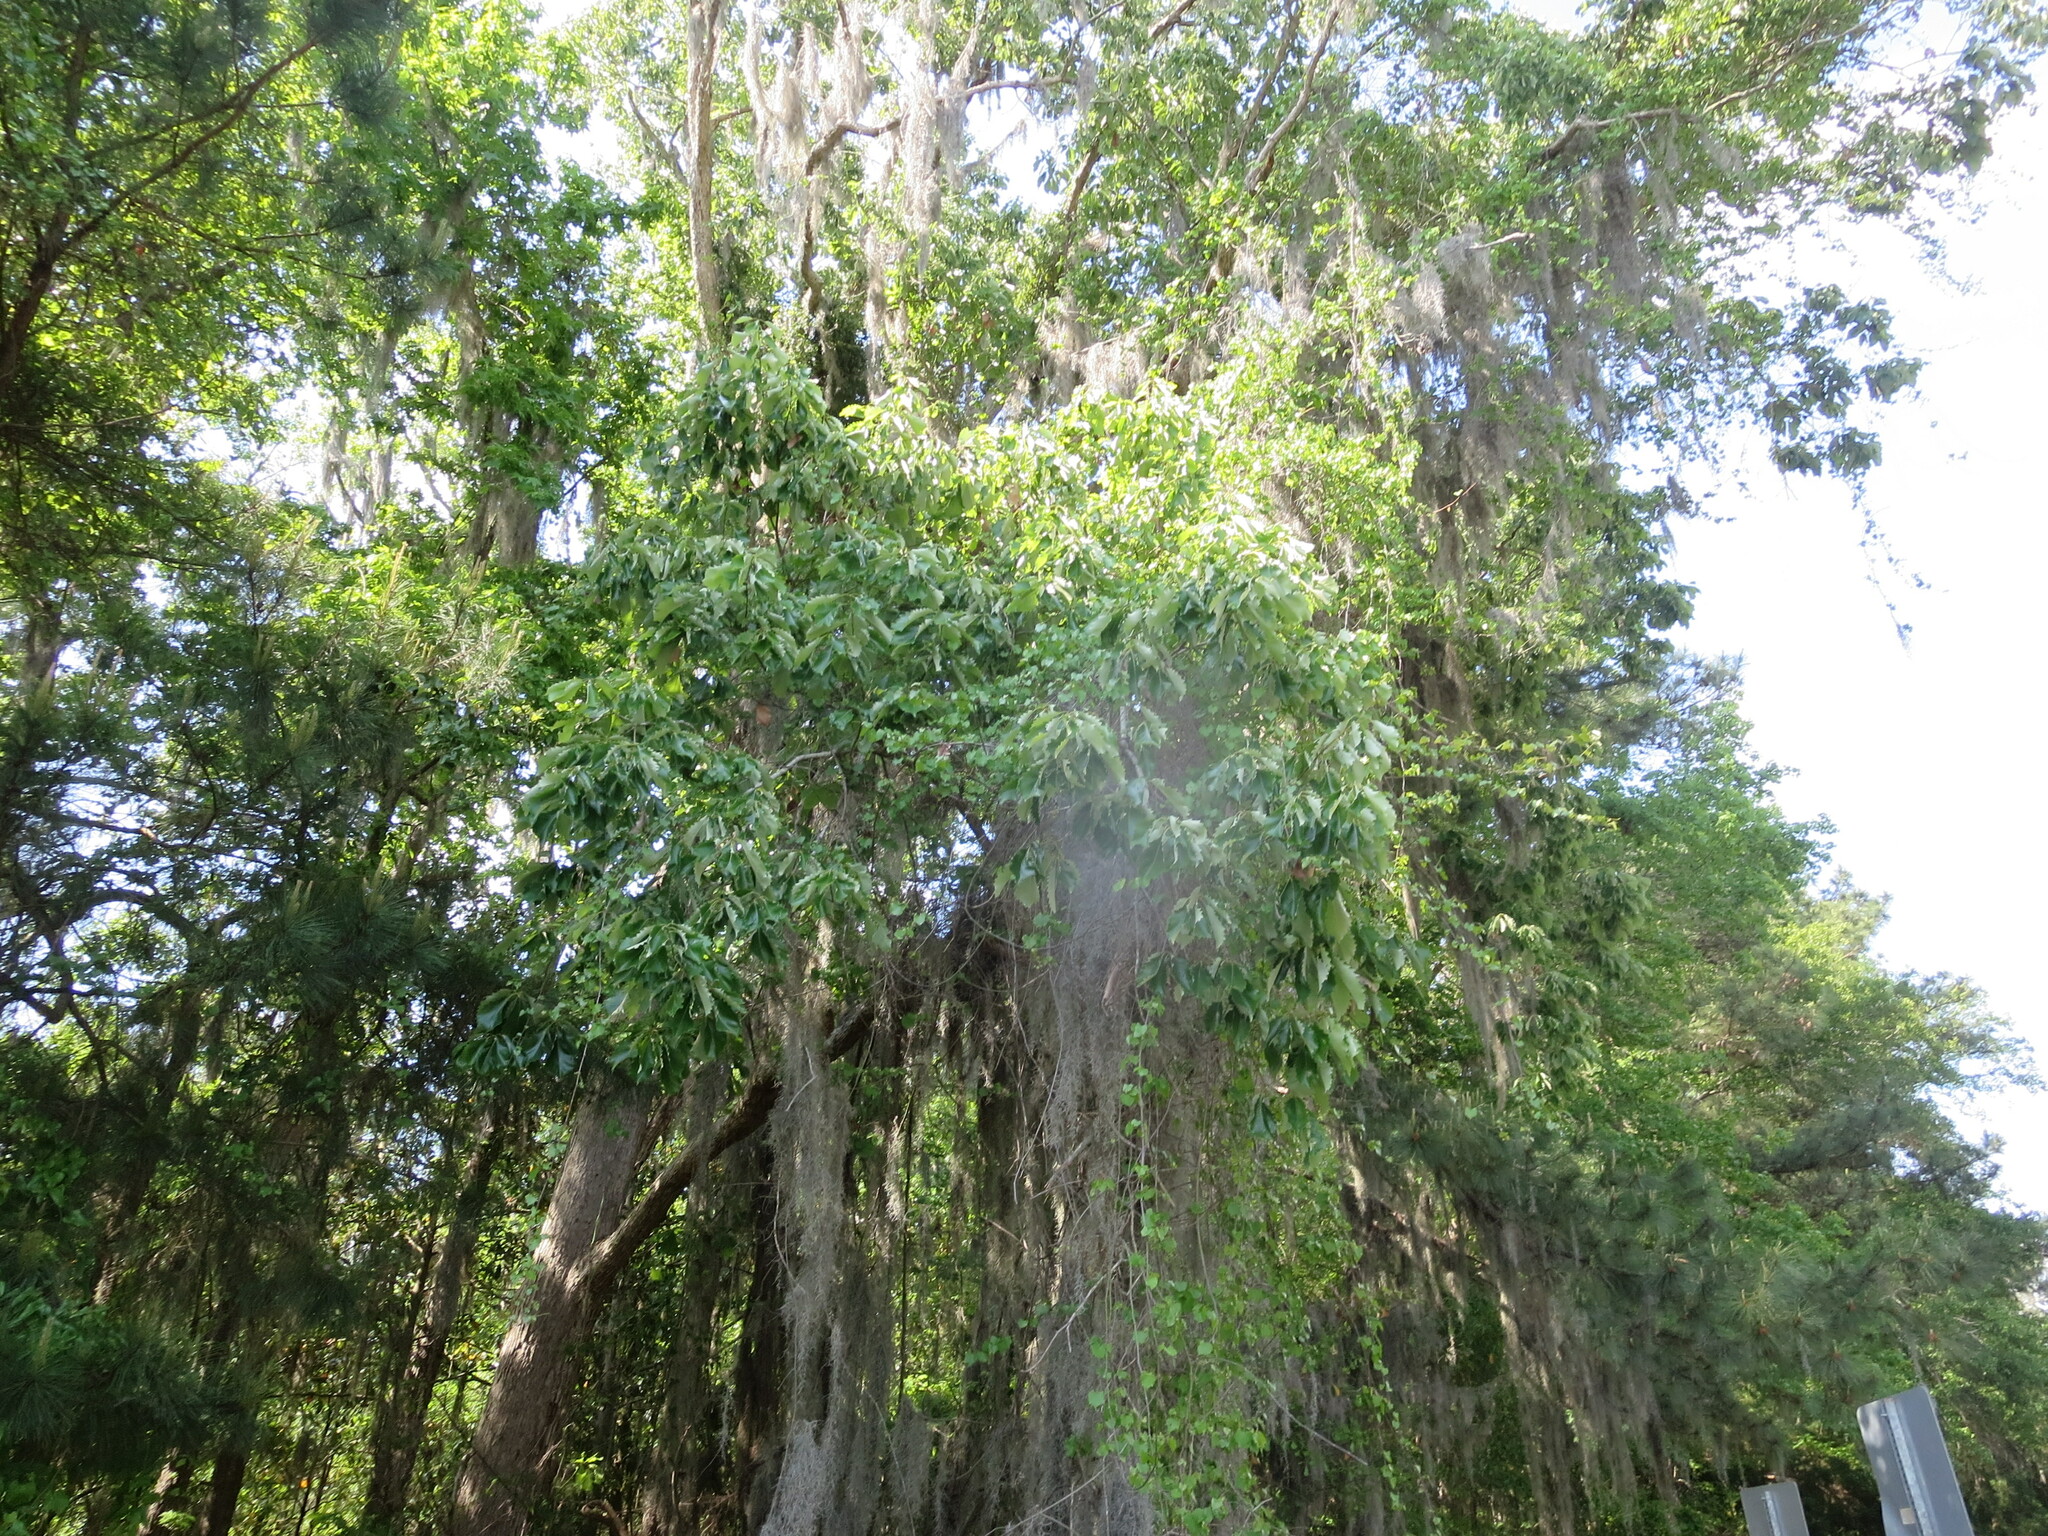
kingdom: Plantae
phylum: Tracheophyta
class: Magnoliopsida
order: Fagales
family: Fagaceae
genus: Quercus
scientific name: Quercus michauxii
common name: Swamp chestnut oak
